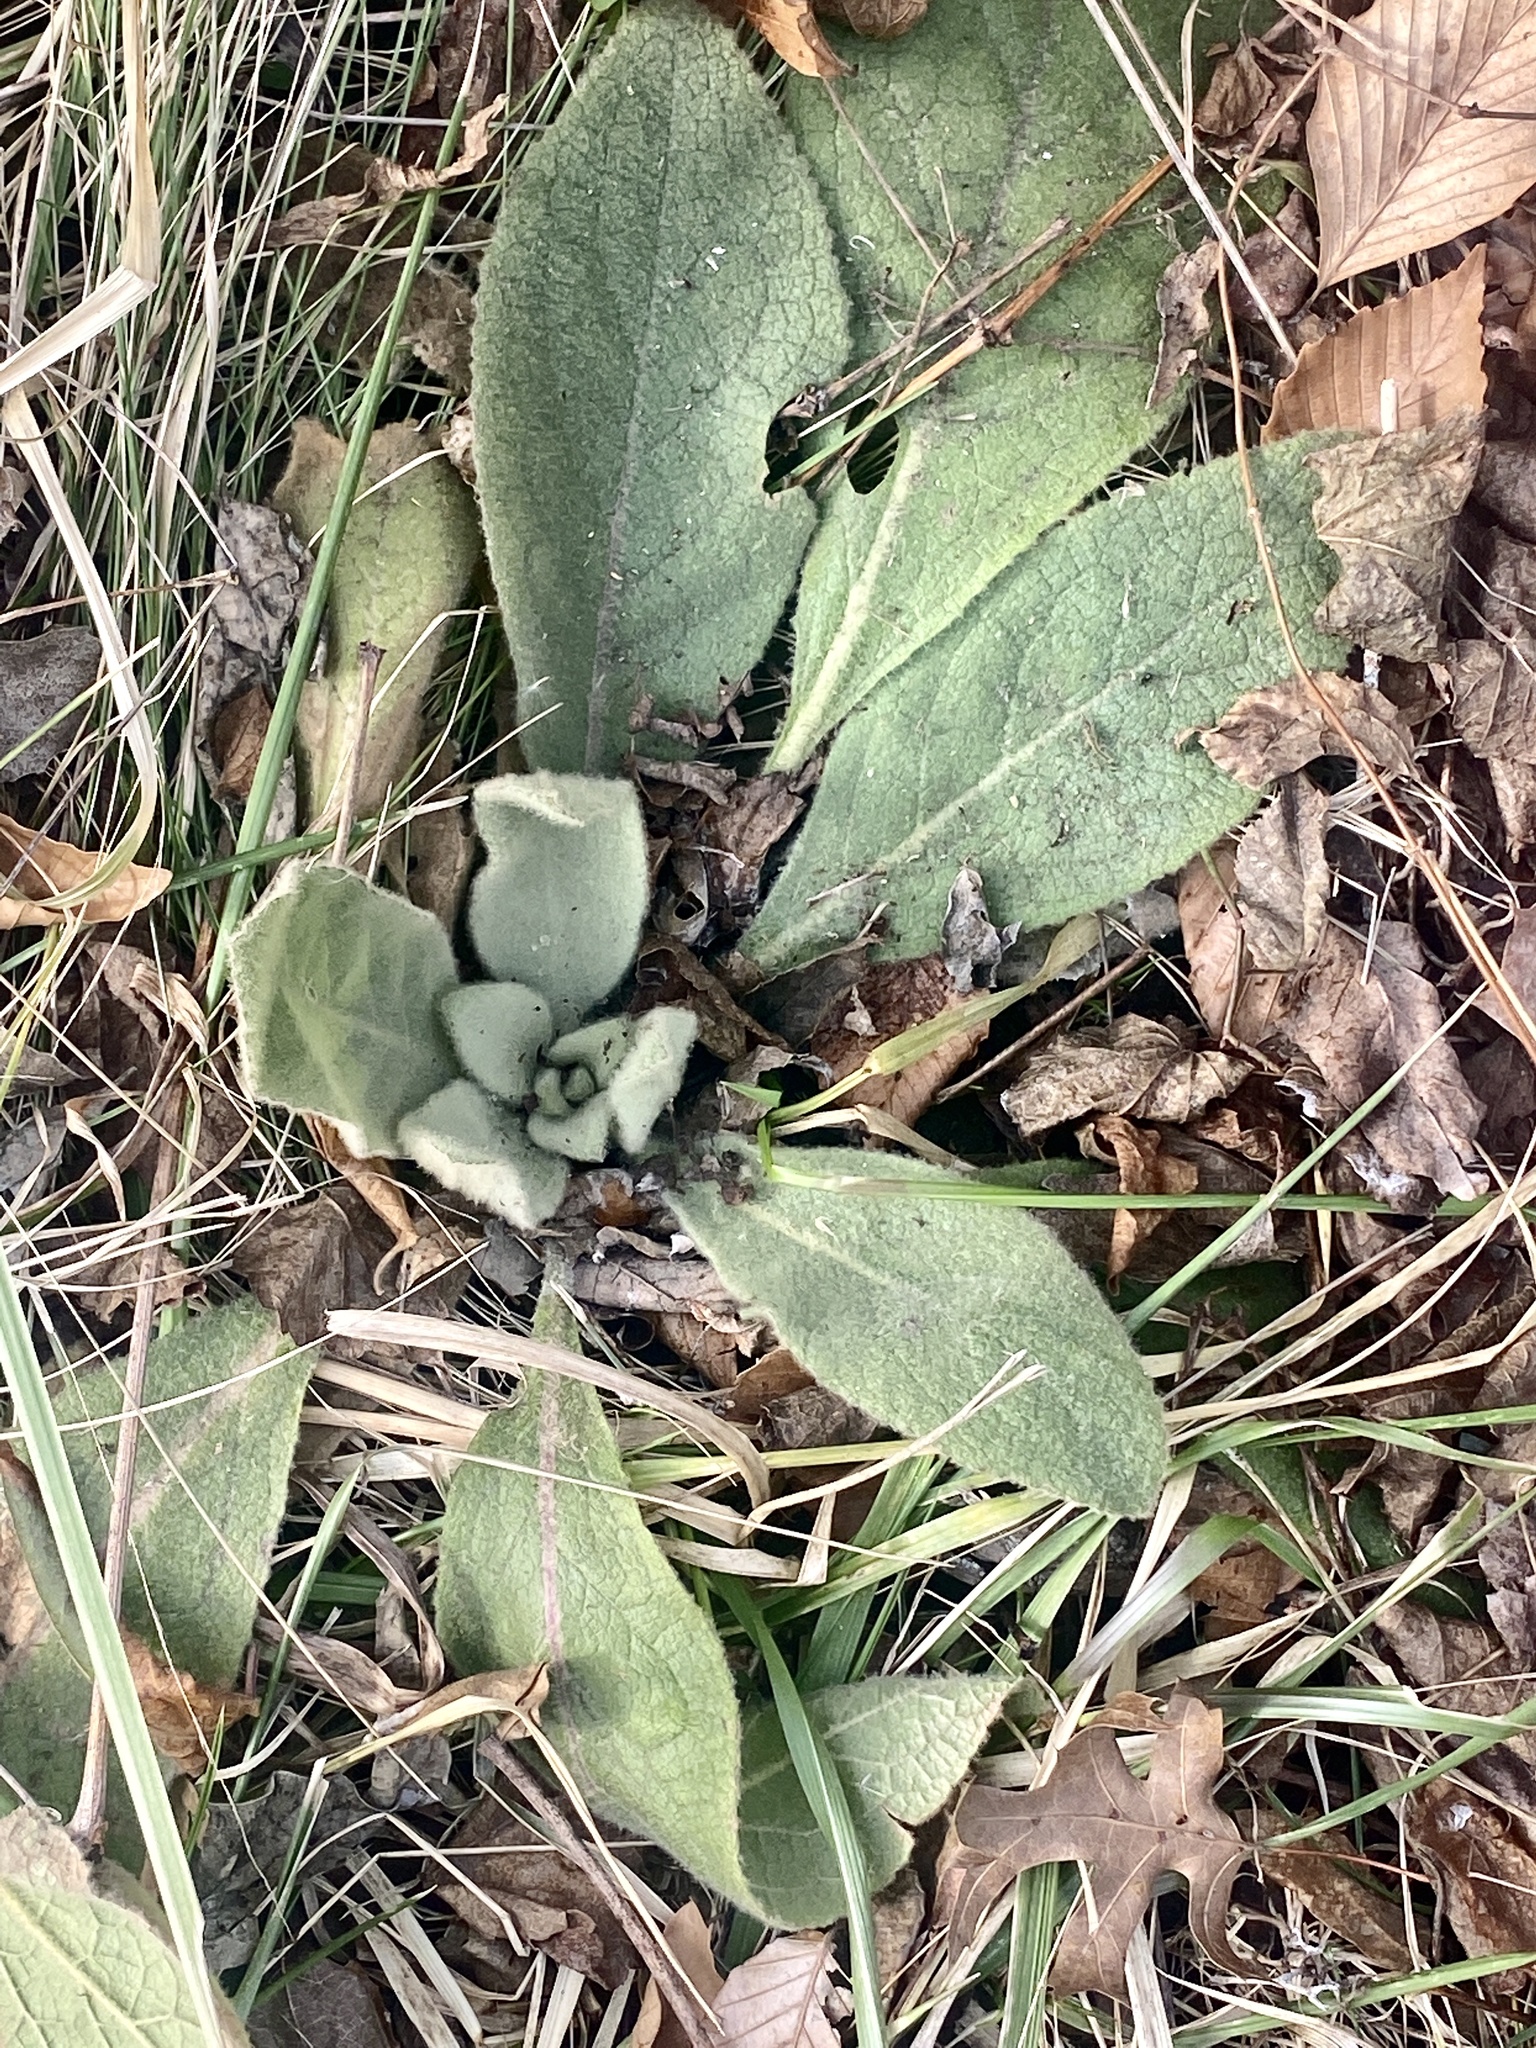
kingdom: Plantae
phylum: Tracheophyta
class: Magnoliopsida
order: Lamiales
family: Scrophulariaceae
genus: Verbascum
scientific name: Verbascum thapsus
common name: Common mullein
